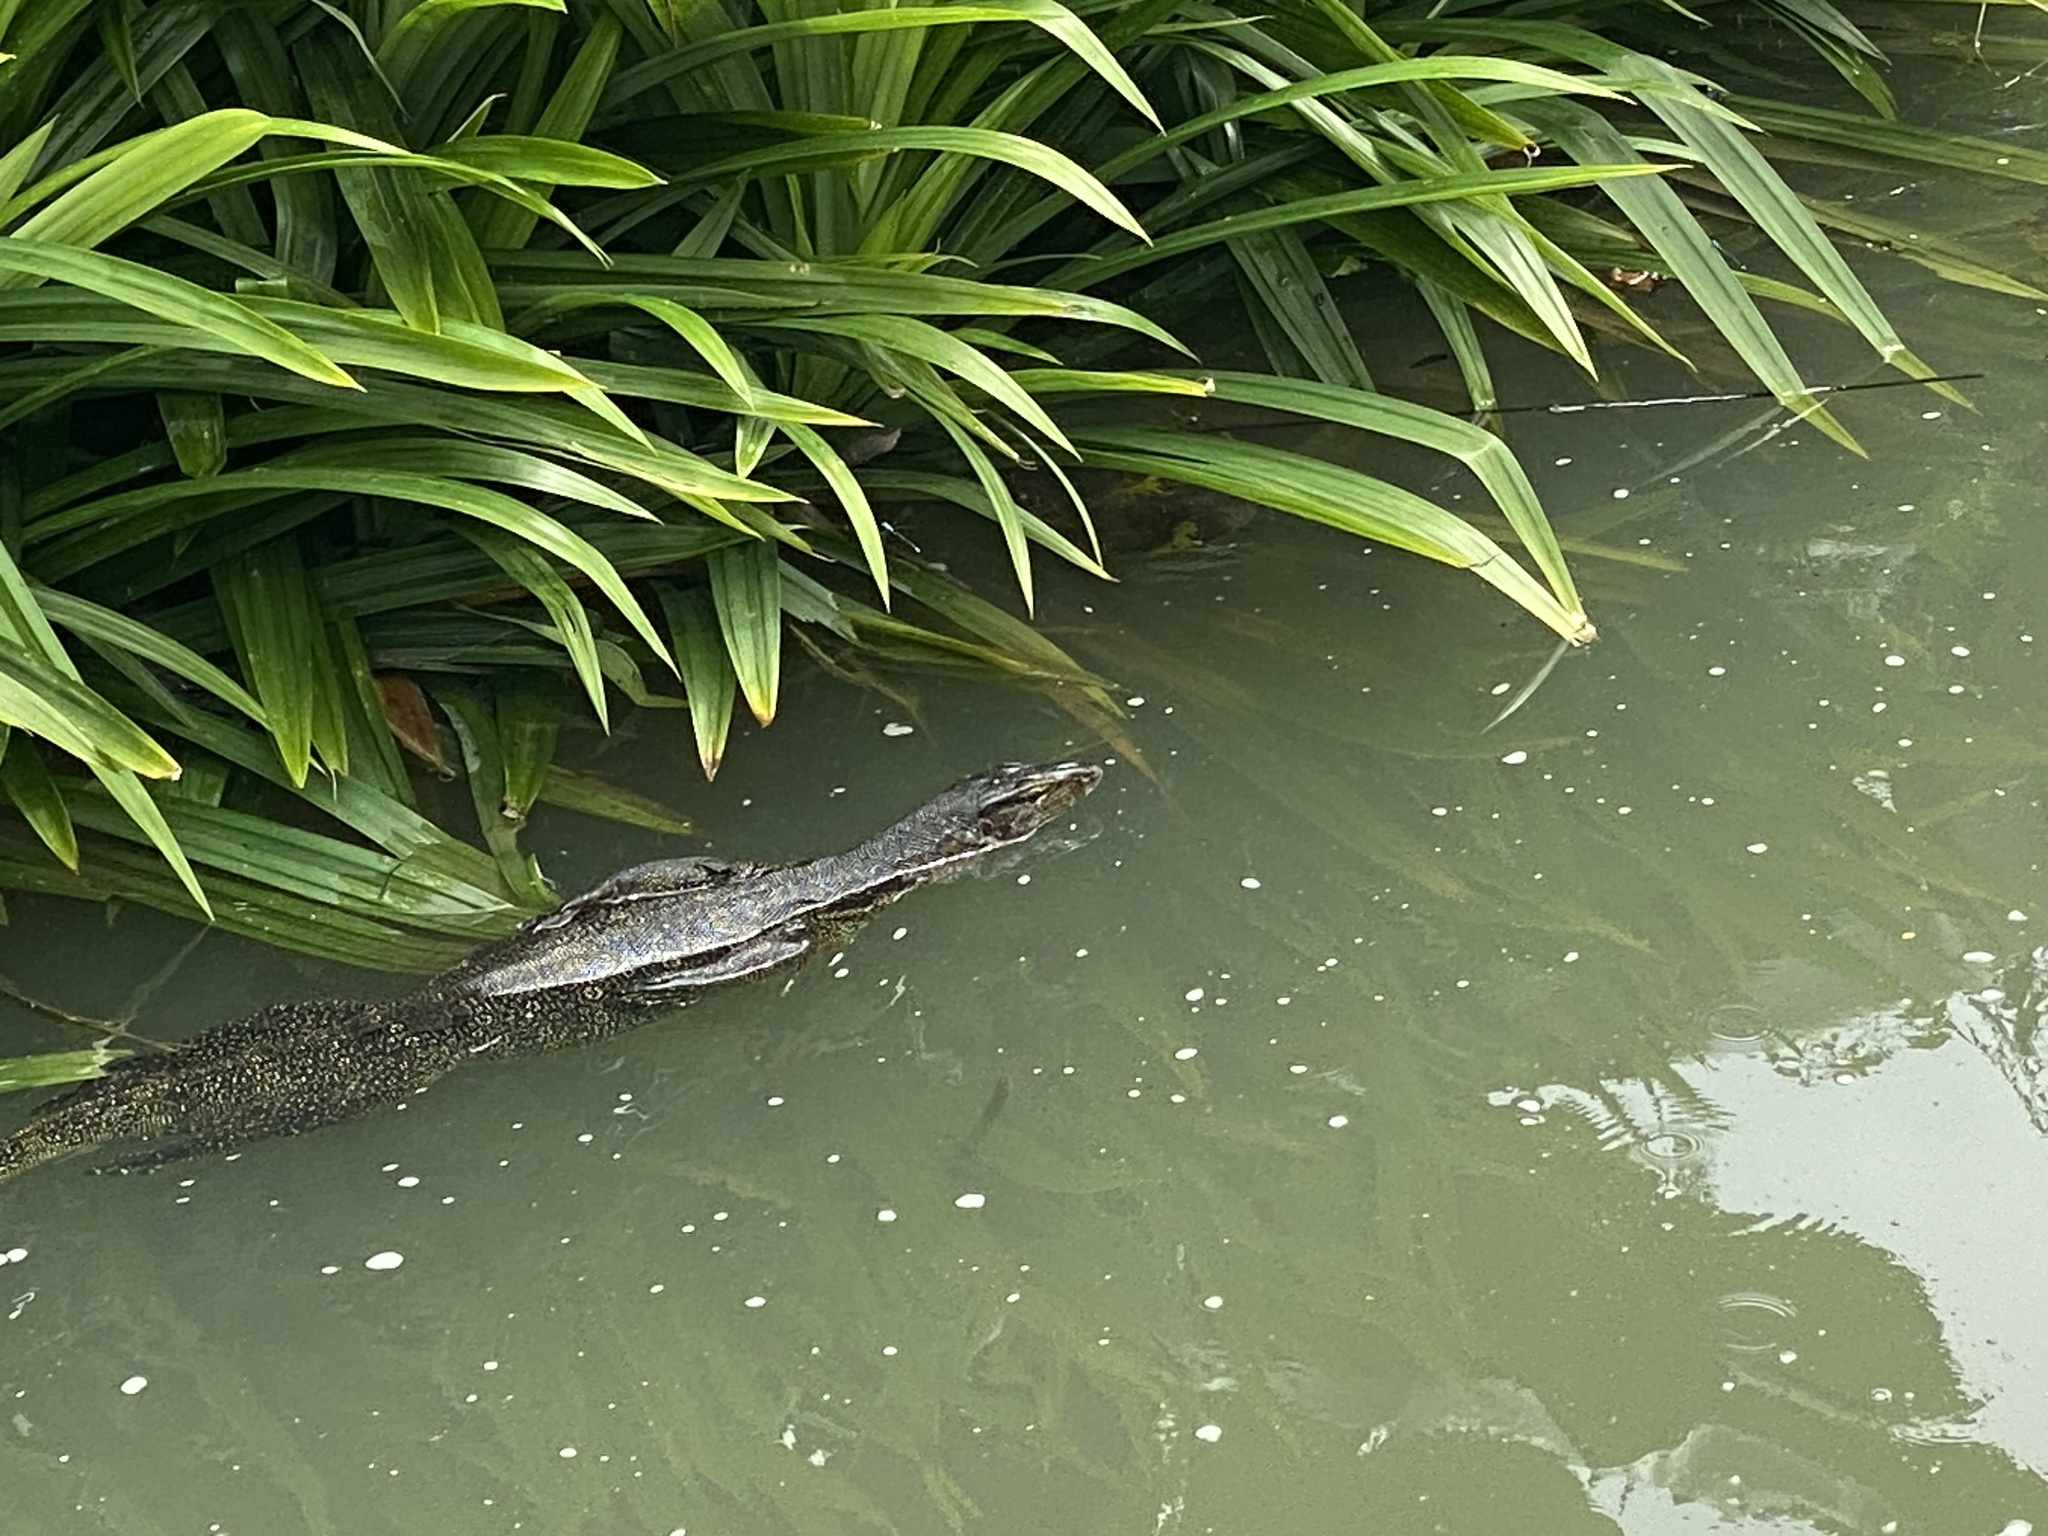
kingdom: Animalia
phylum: Chordata
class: Squamata
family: Varanidae
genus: Varanus
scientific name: Varanus salvator
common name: Common water monitor
